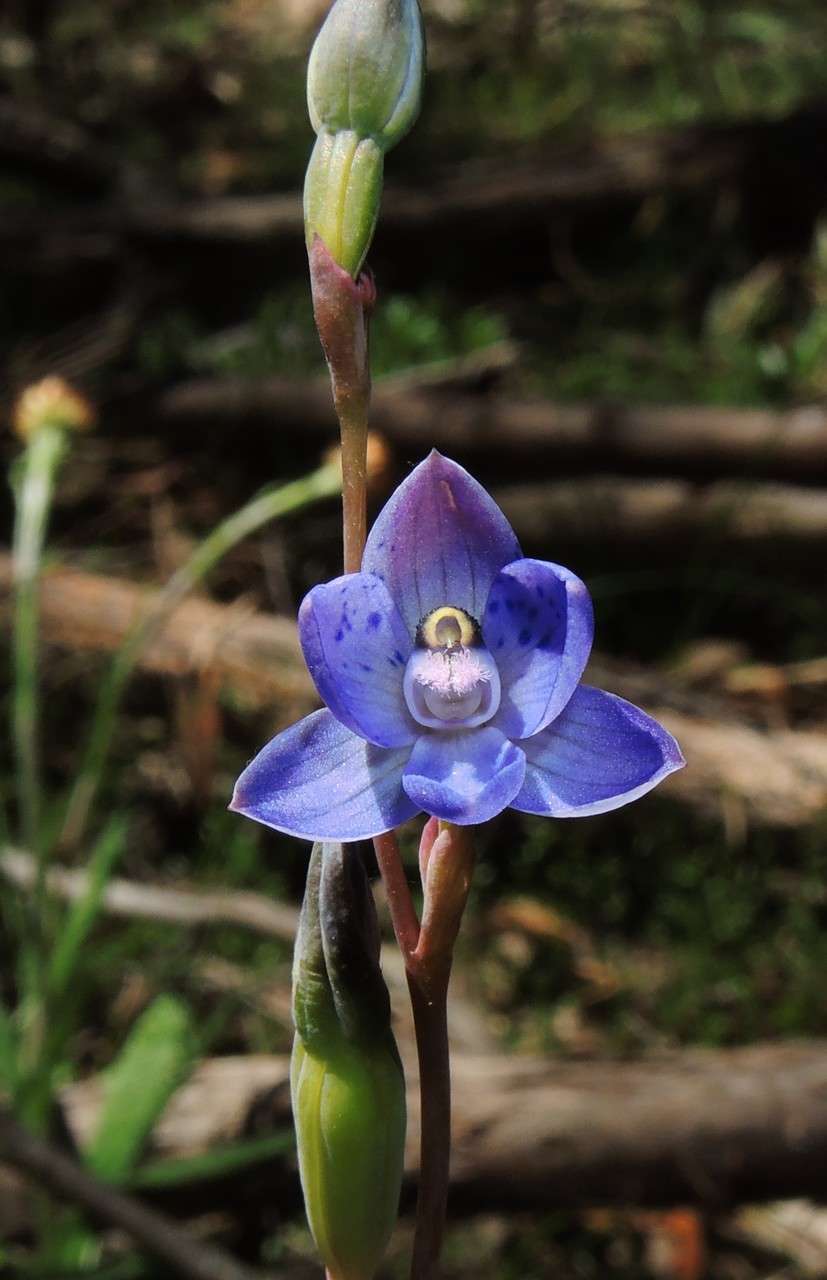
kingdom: Plantae
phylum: Tracheophyta
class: Liliopsida
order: Asparagales
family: Orchidaceae
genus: Thelymitra
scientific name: Thelymitra truncata
